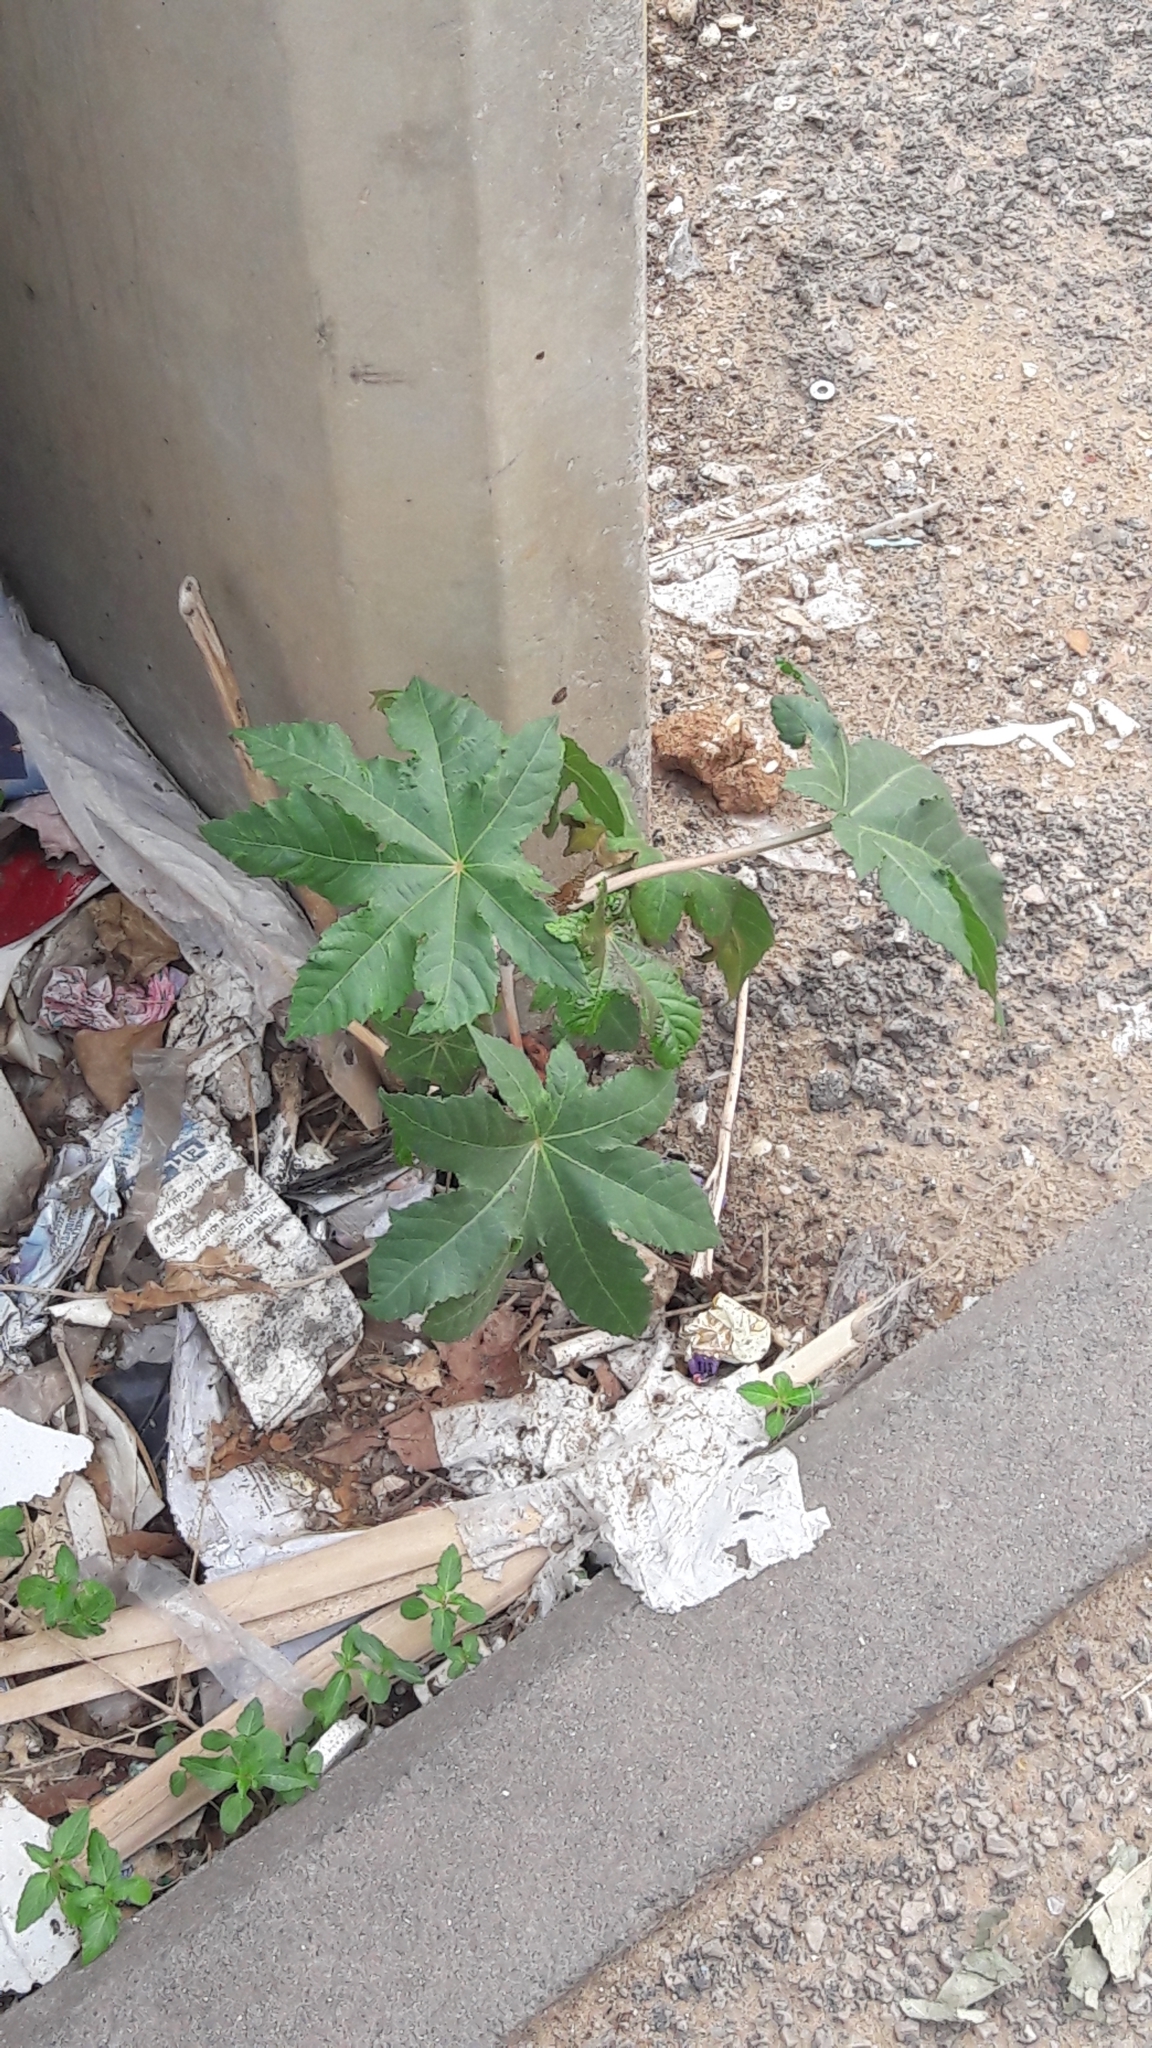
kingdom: Plantae
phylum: Tracheophyta
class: Magnoliopsida
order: Malpighiales
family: Euphorbiaceae
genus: Ricinus
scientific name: Ricinus communis
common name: Castor-oil-plant
